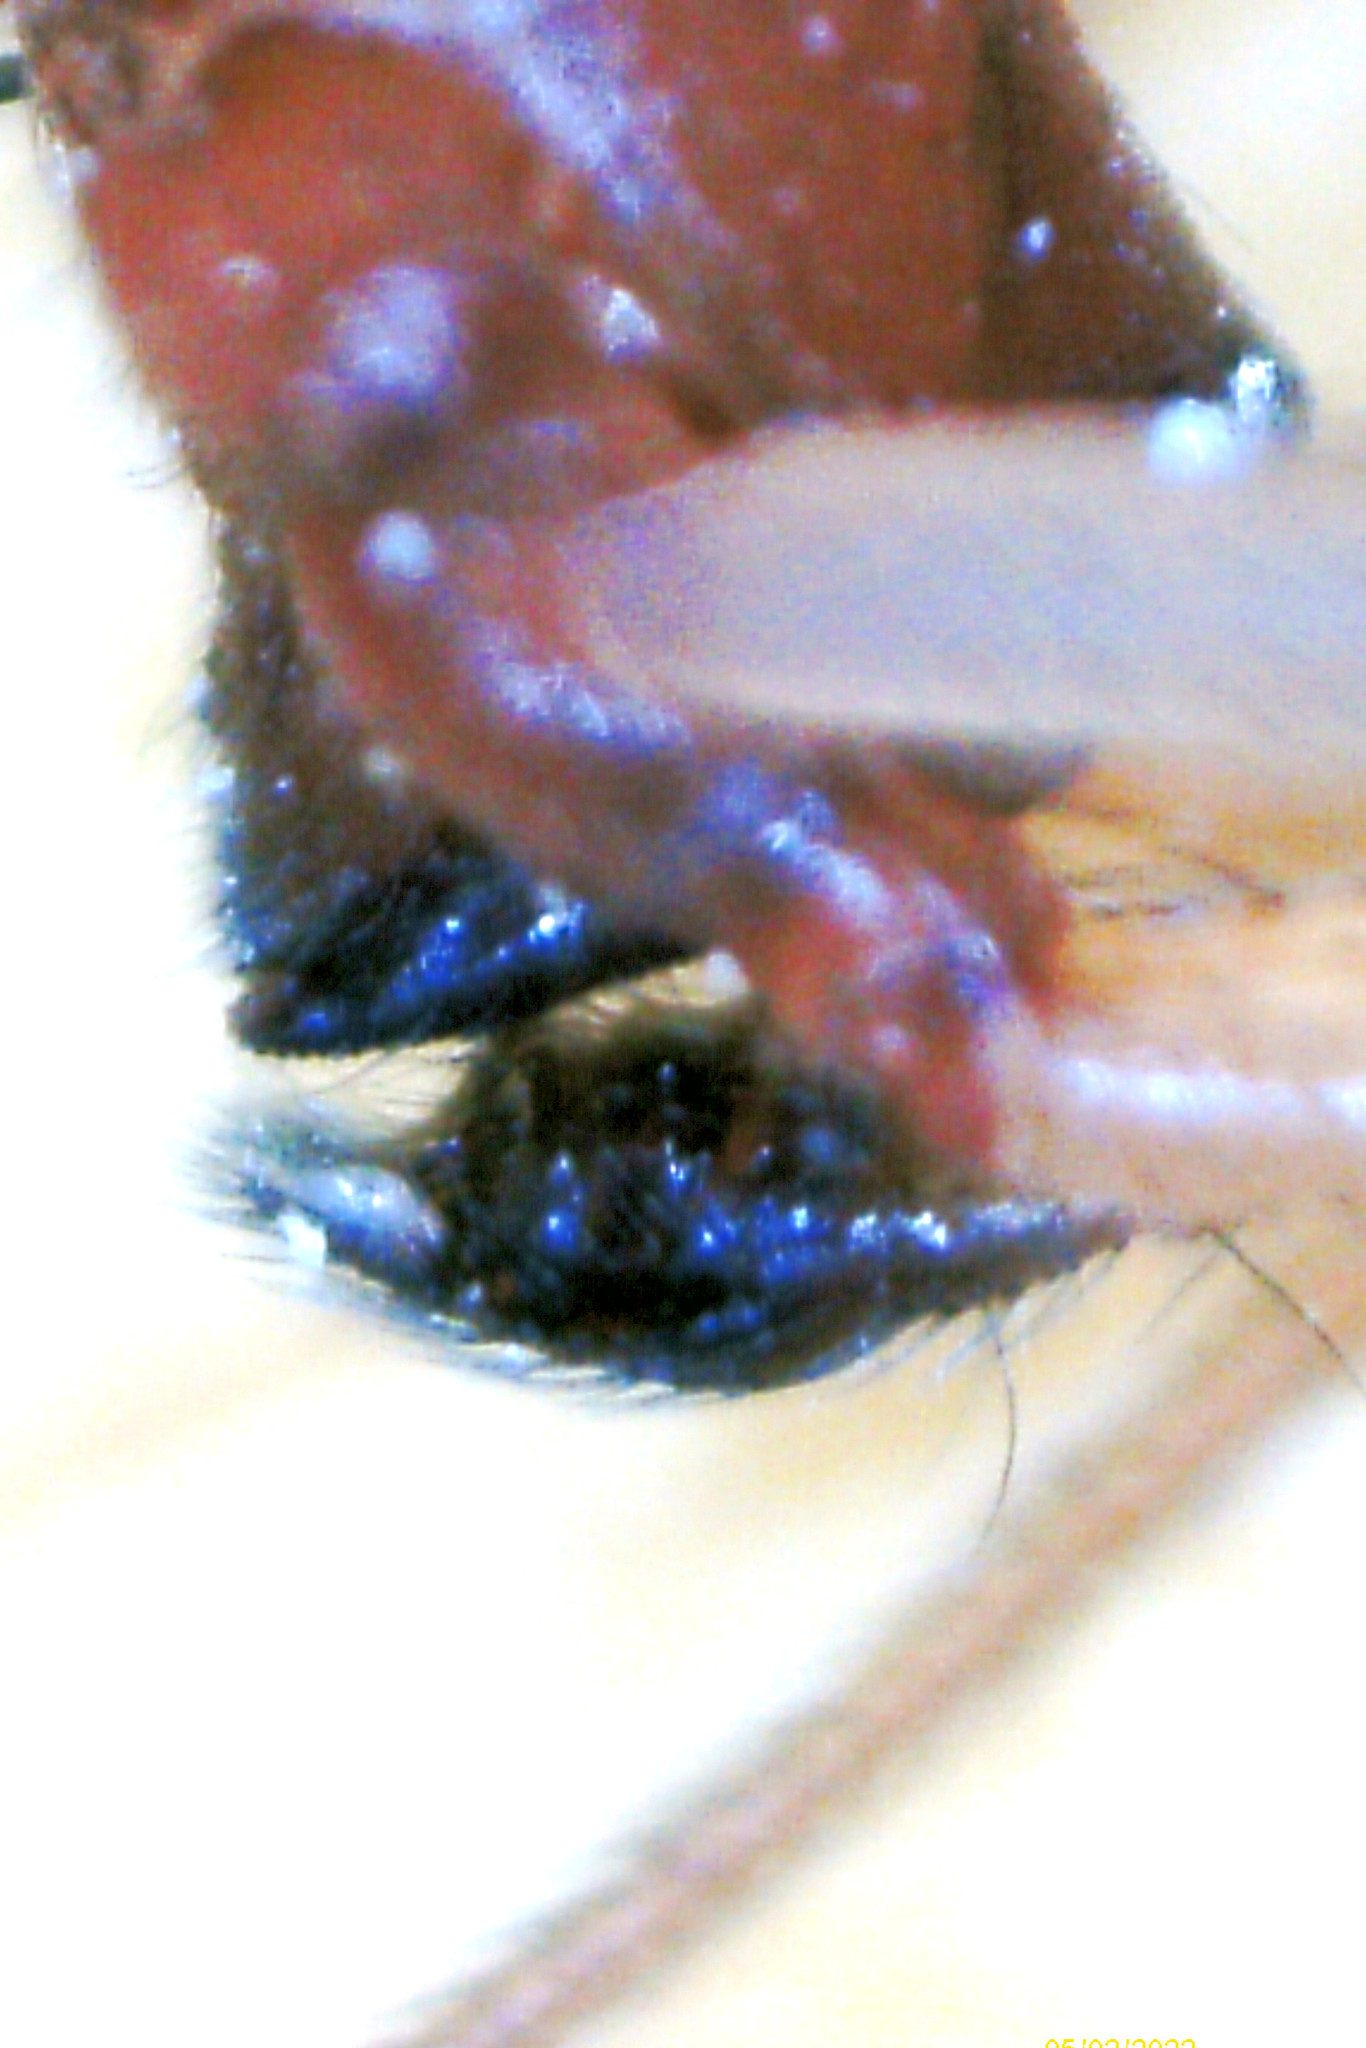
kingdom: Animalia
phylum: Arthropoda
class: Arachnida
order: Araneae
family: Theridiidae
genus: Steatoda
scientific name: Steatoda grossa
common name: False black widow
